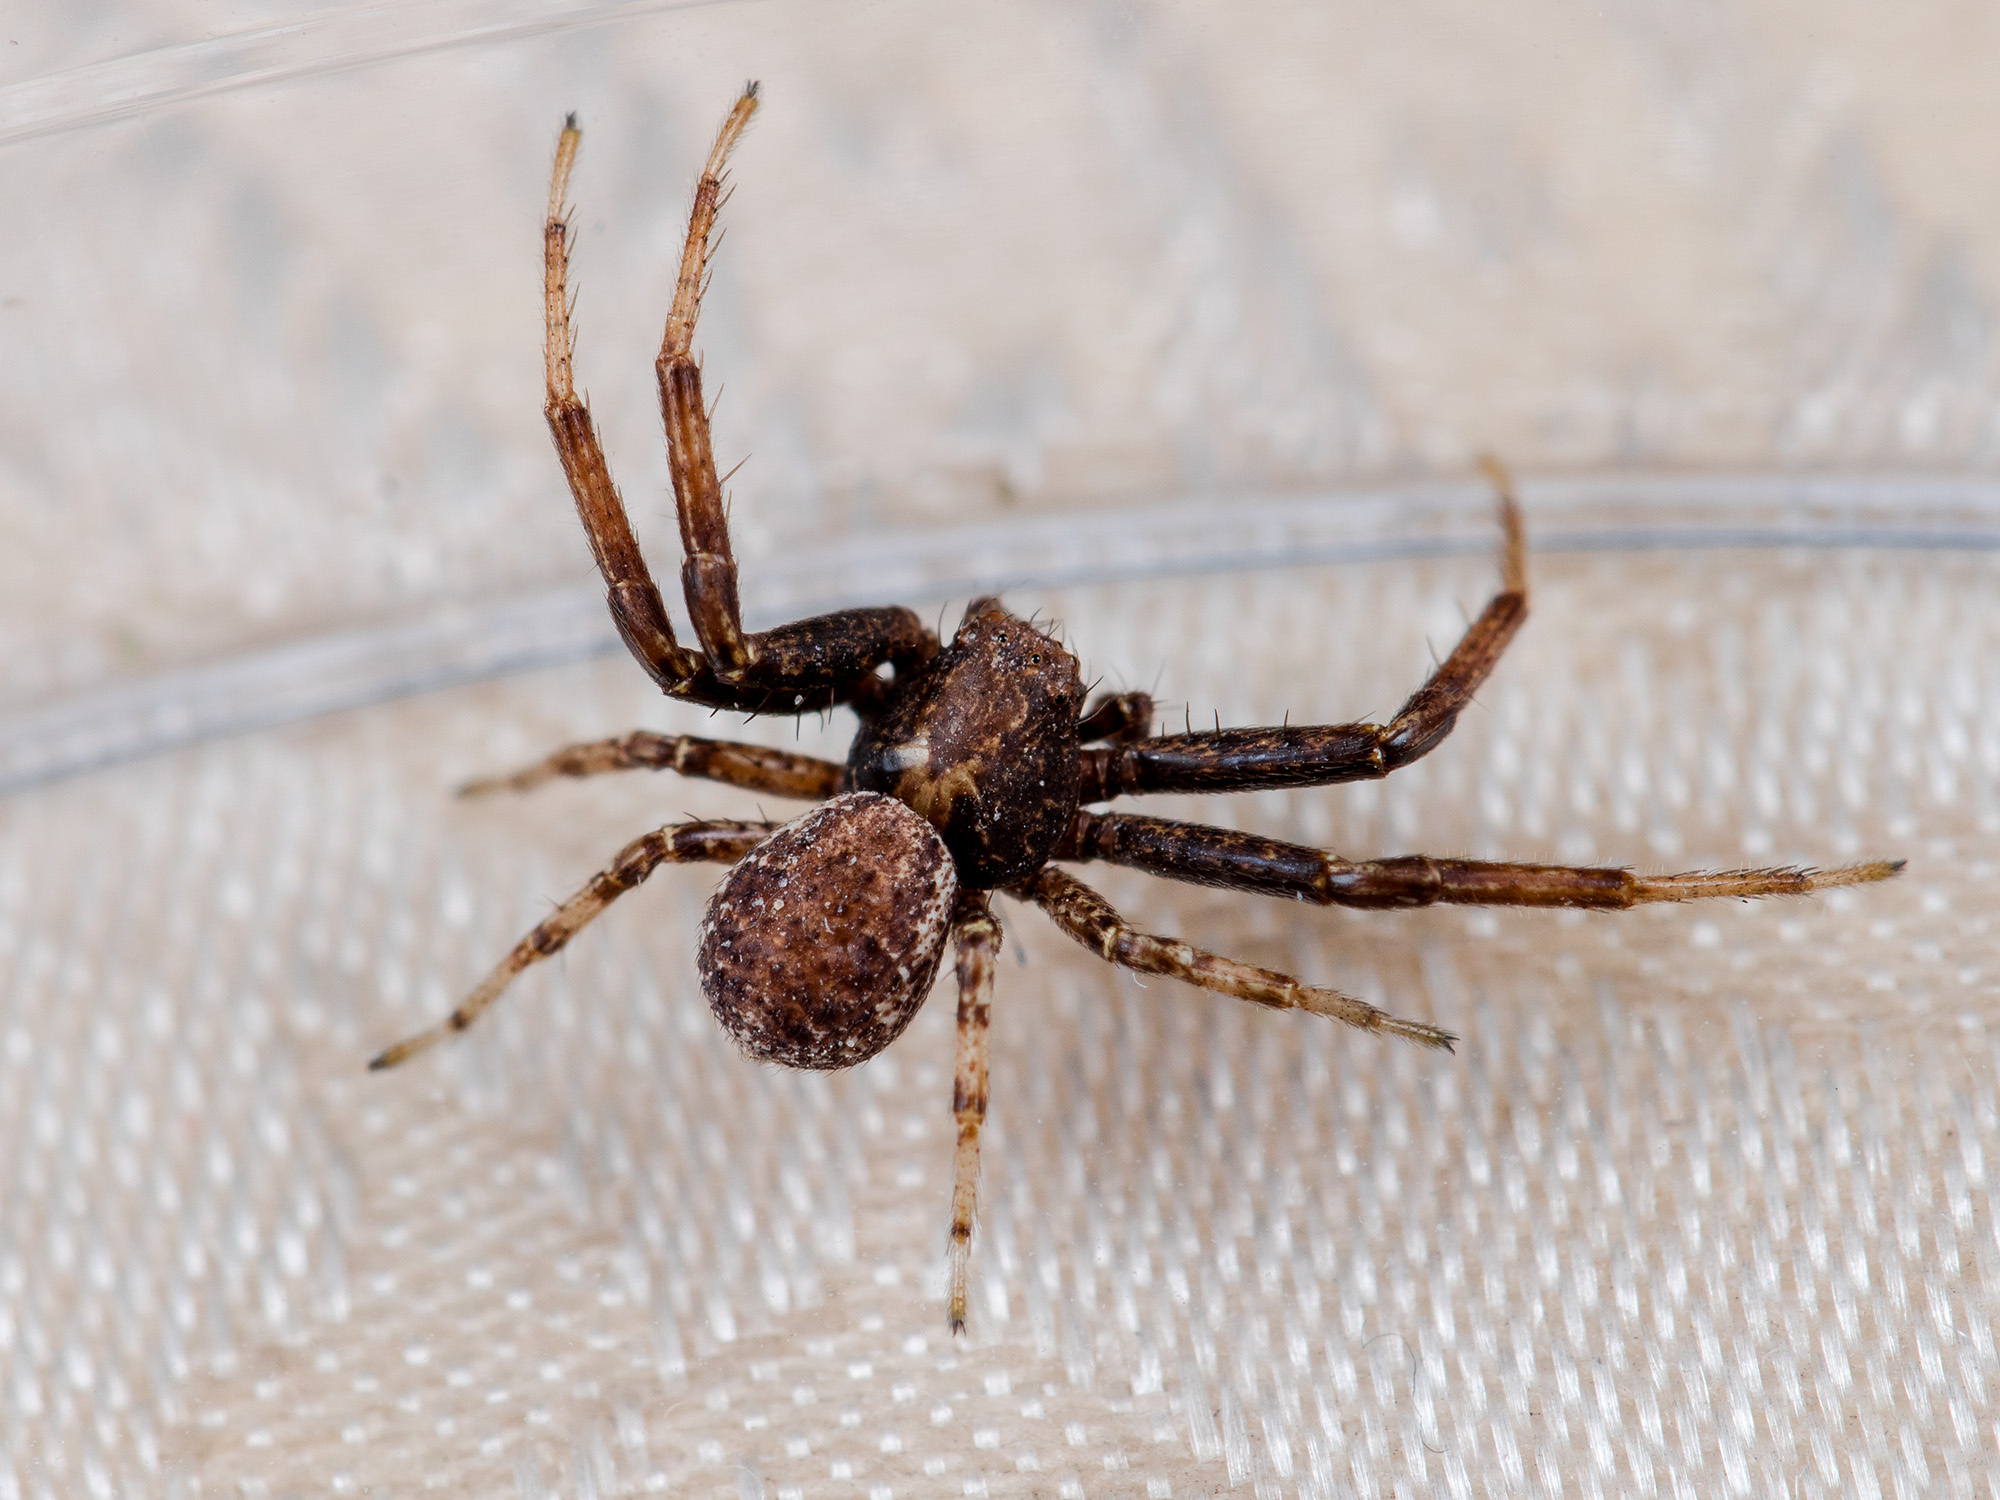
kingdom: Animalia
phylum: Arthropoda
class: Arachnida
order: Araneae
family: Thomisidae
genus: Xysticus
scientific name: Xysticus lapidarius
